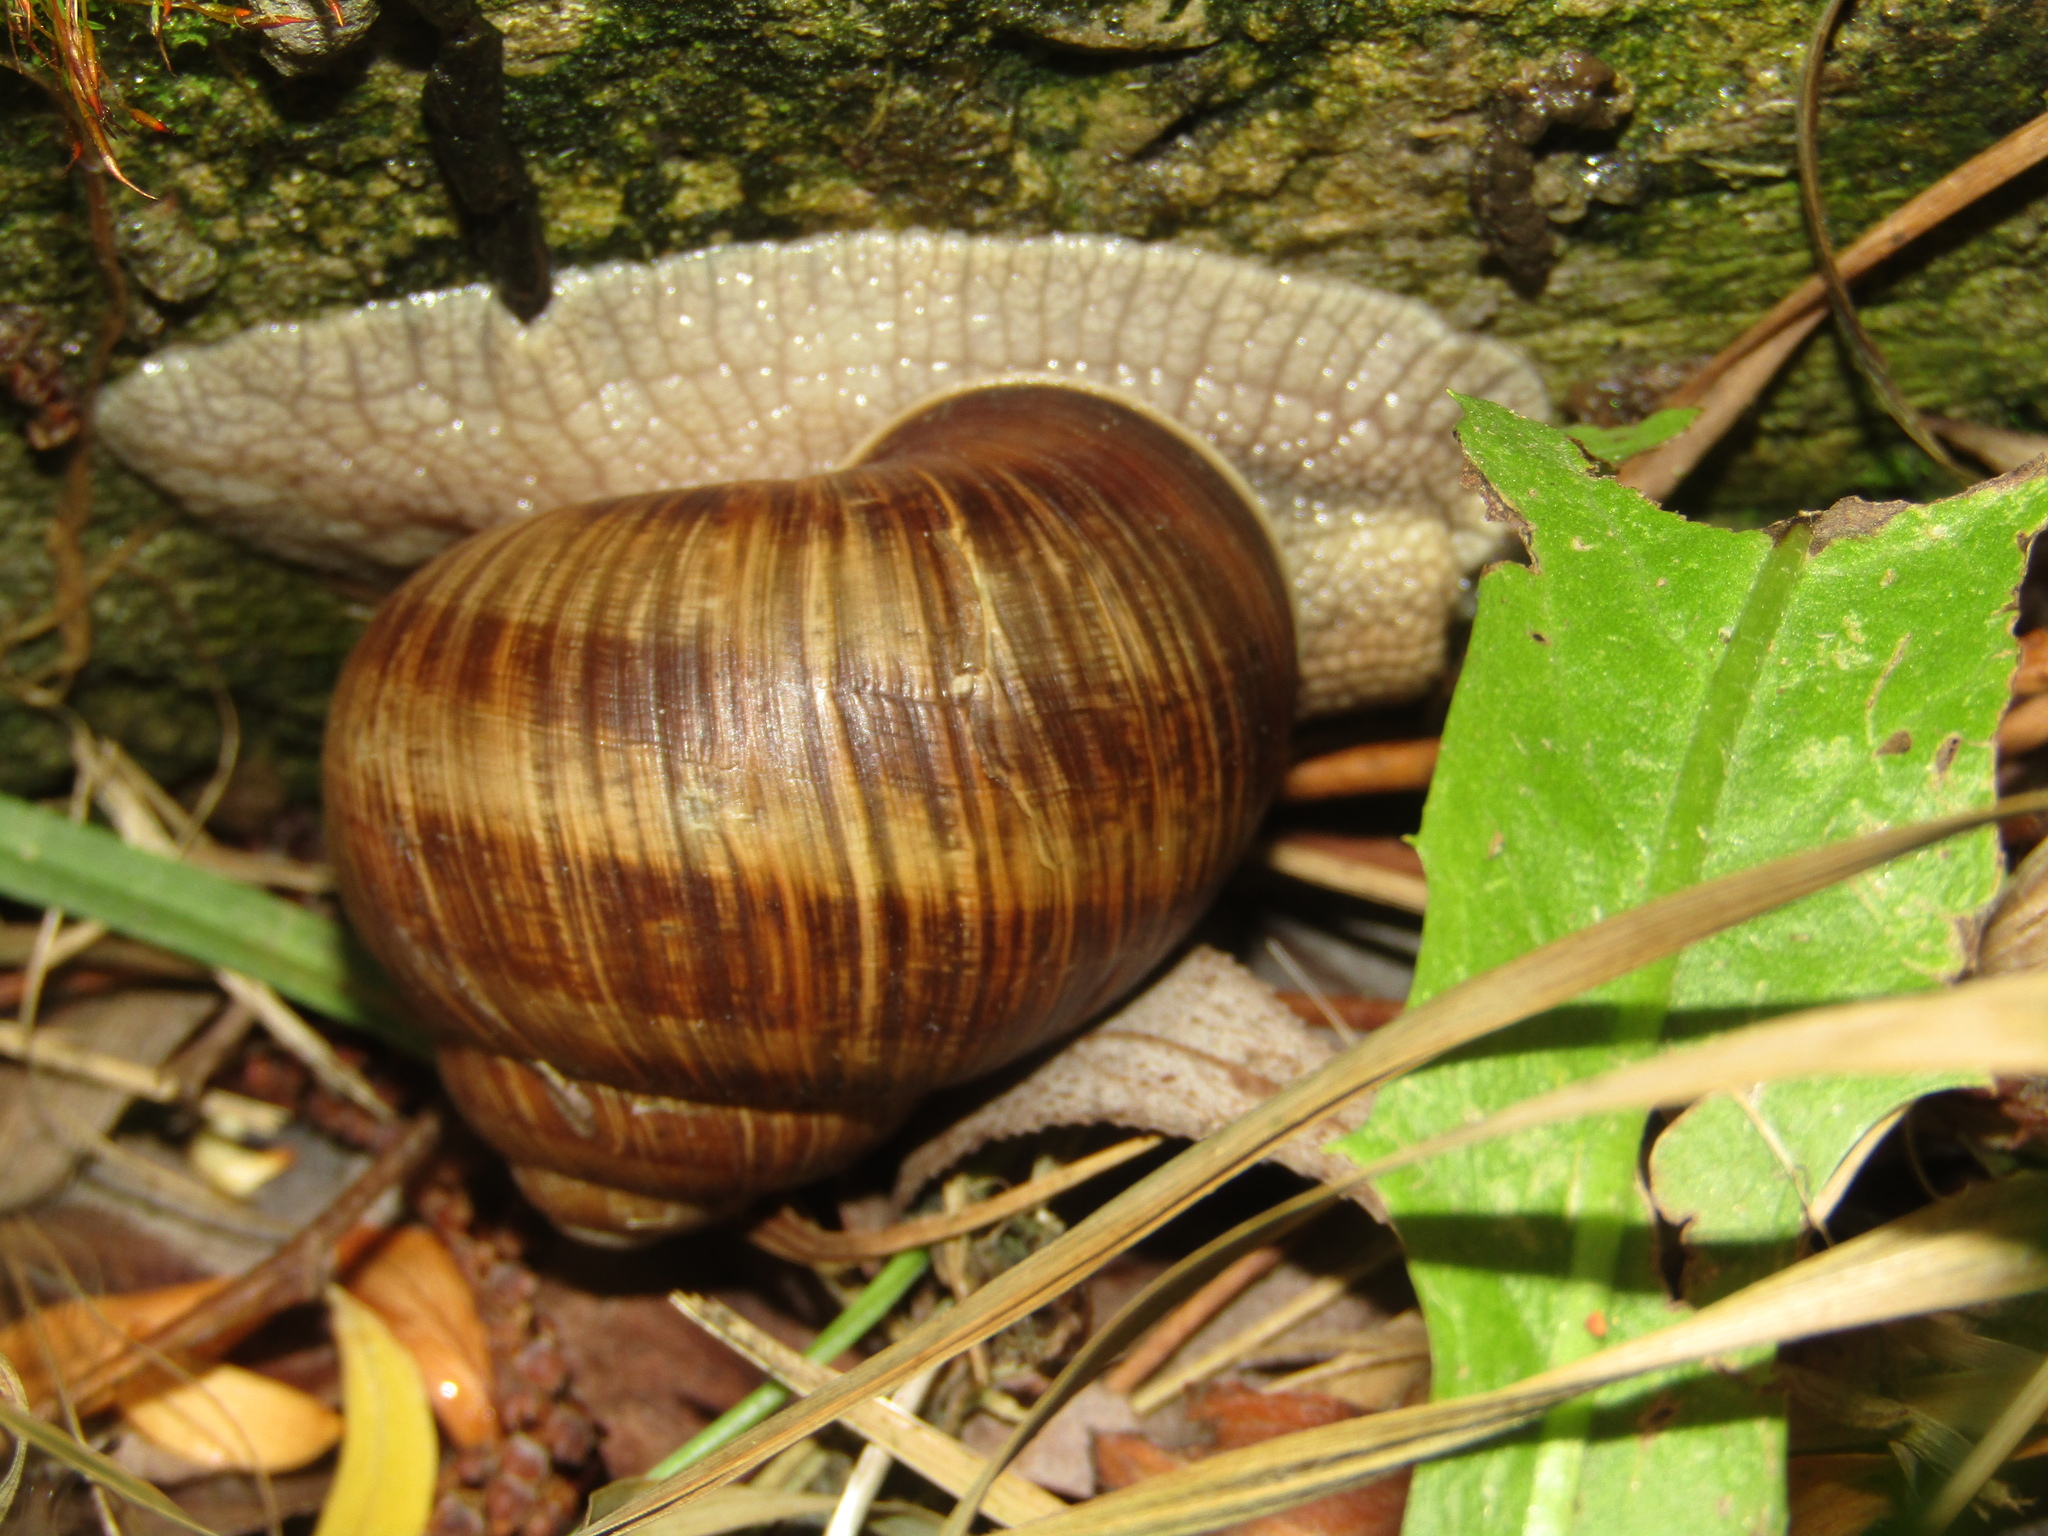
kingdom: Animalia
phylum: Mollusca
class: Gastropoda
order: Stylommatophora
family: Helicidae
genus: Helix
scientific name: Helix pomatia
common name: Roman snail
